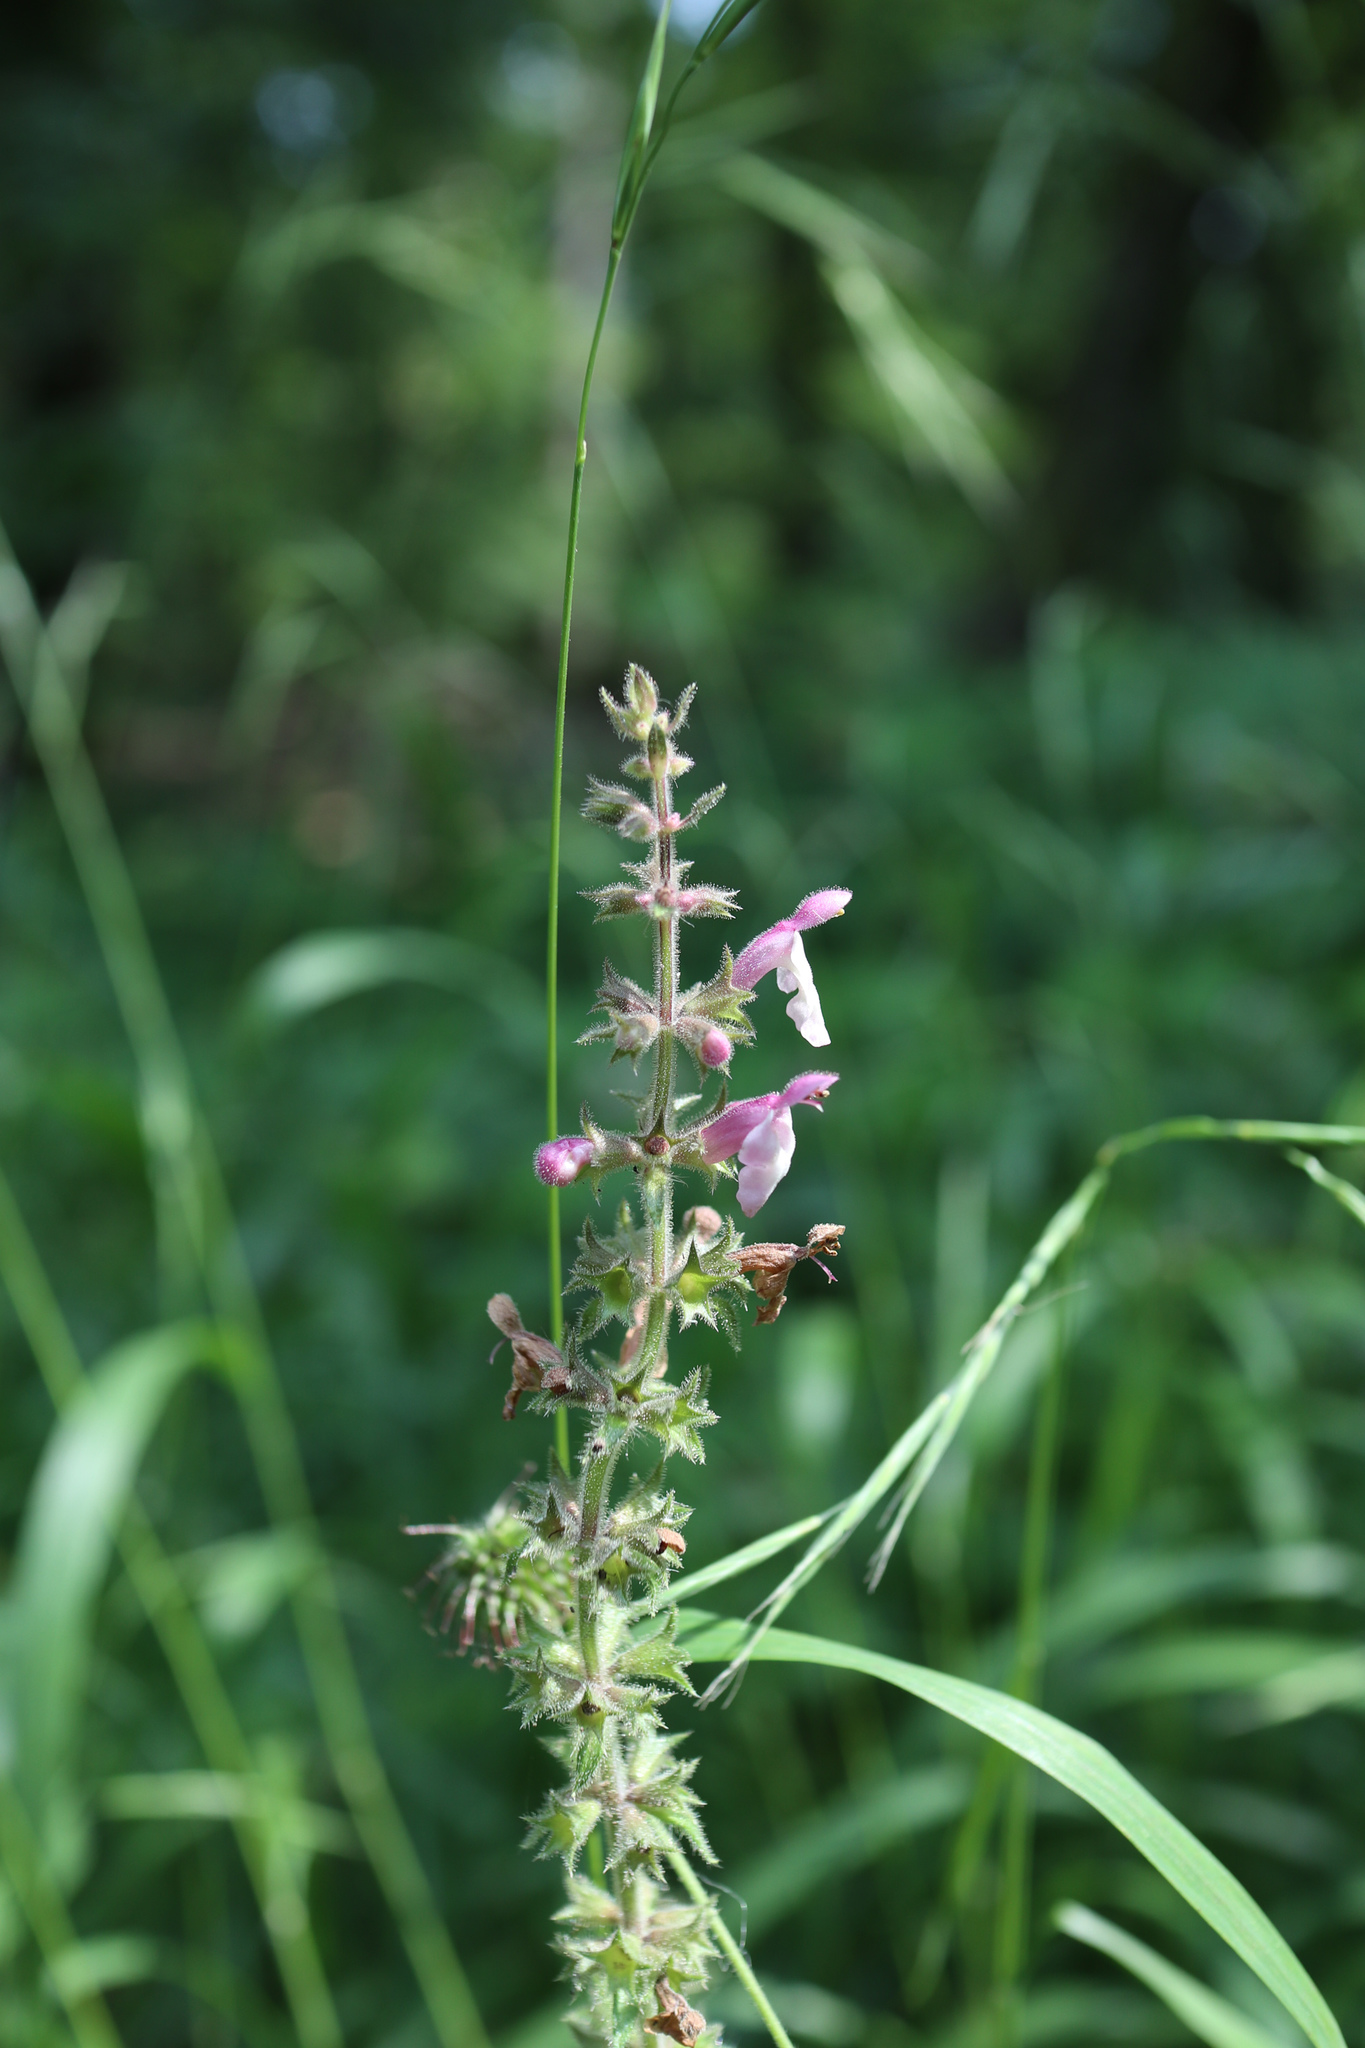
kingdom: Plantae
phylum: Tracheophyta
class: Magnoliopsida
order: Lamiales
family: Lamiaceae
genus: Stachys
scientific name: Stachys sylvatica
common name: Hedge woundwort
